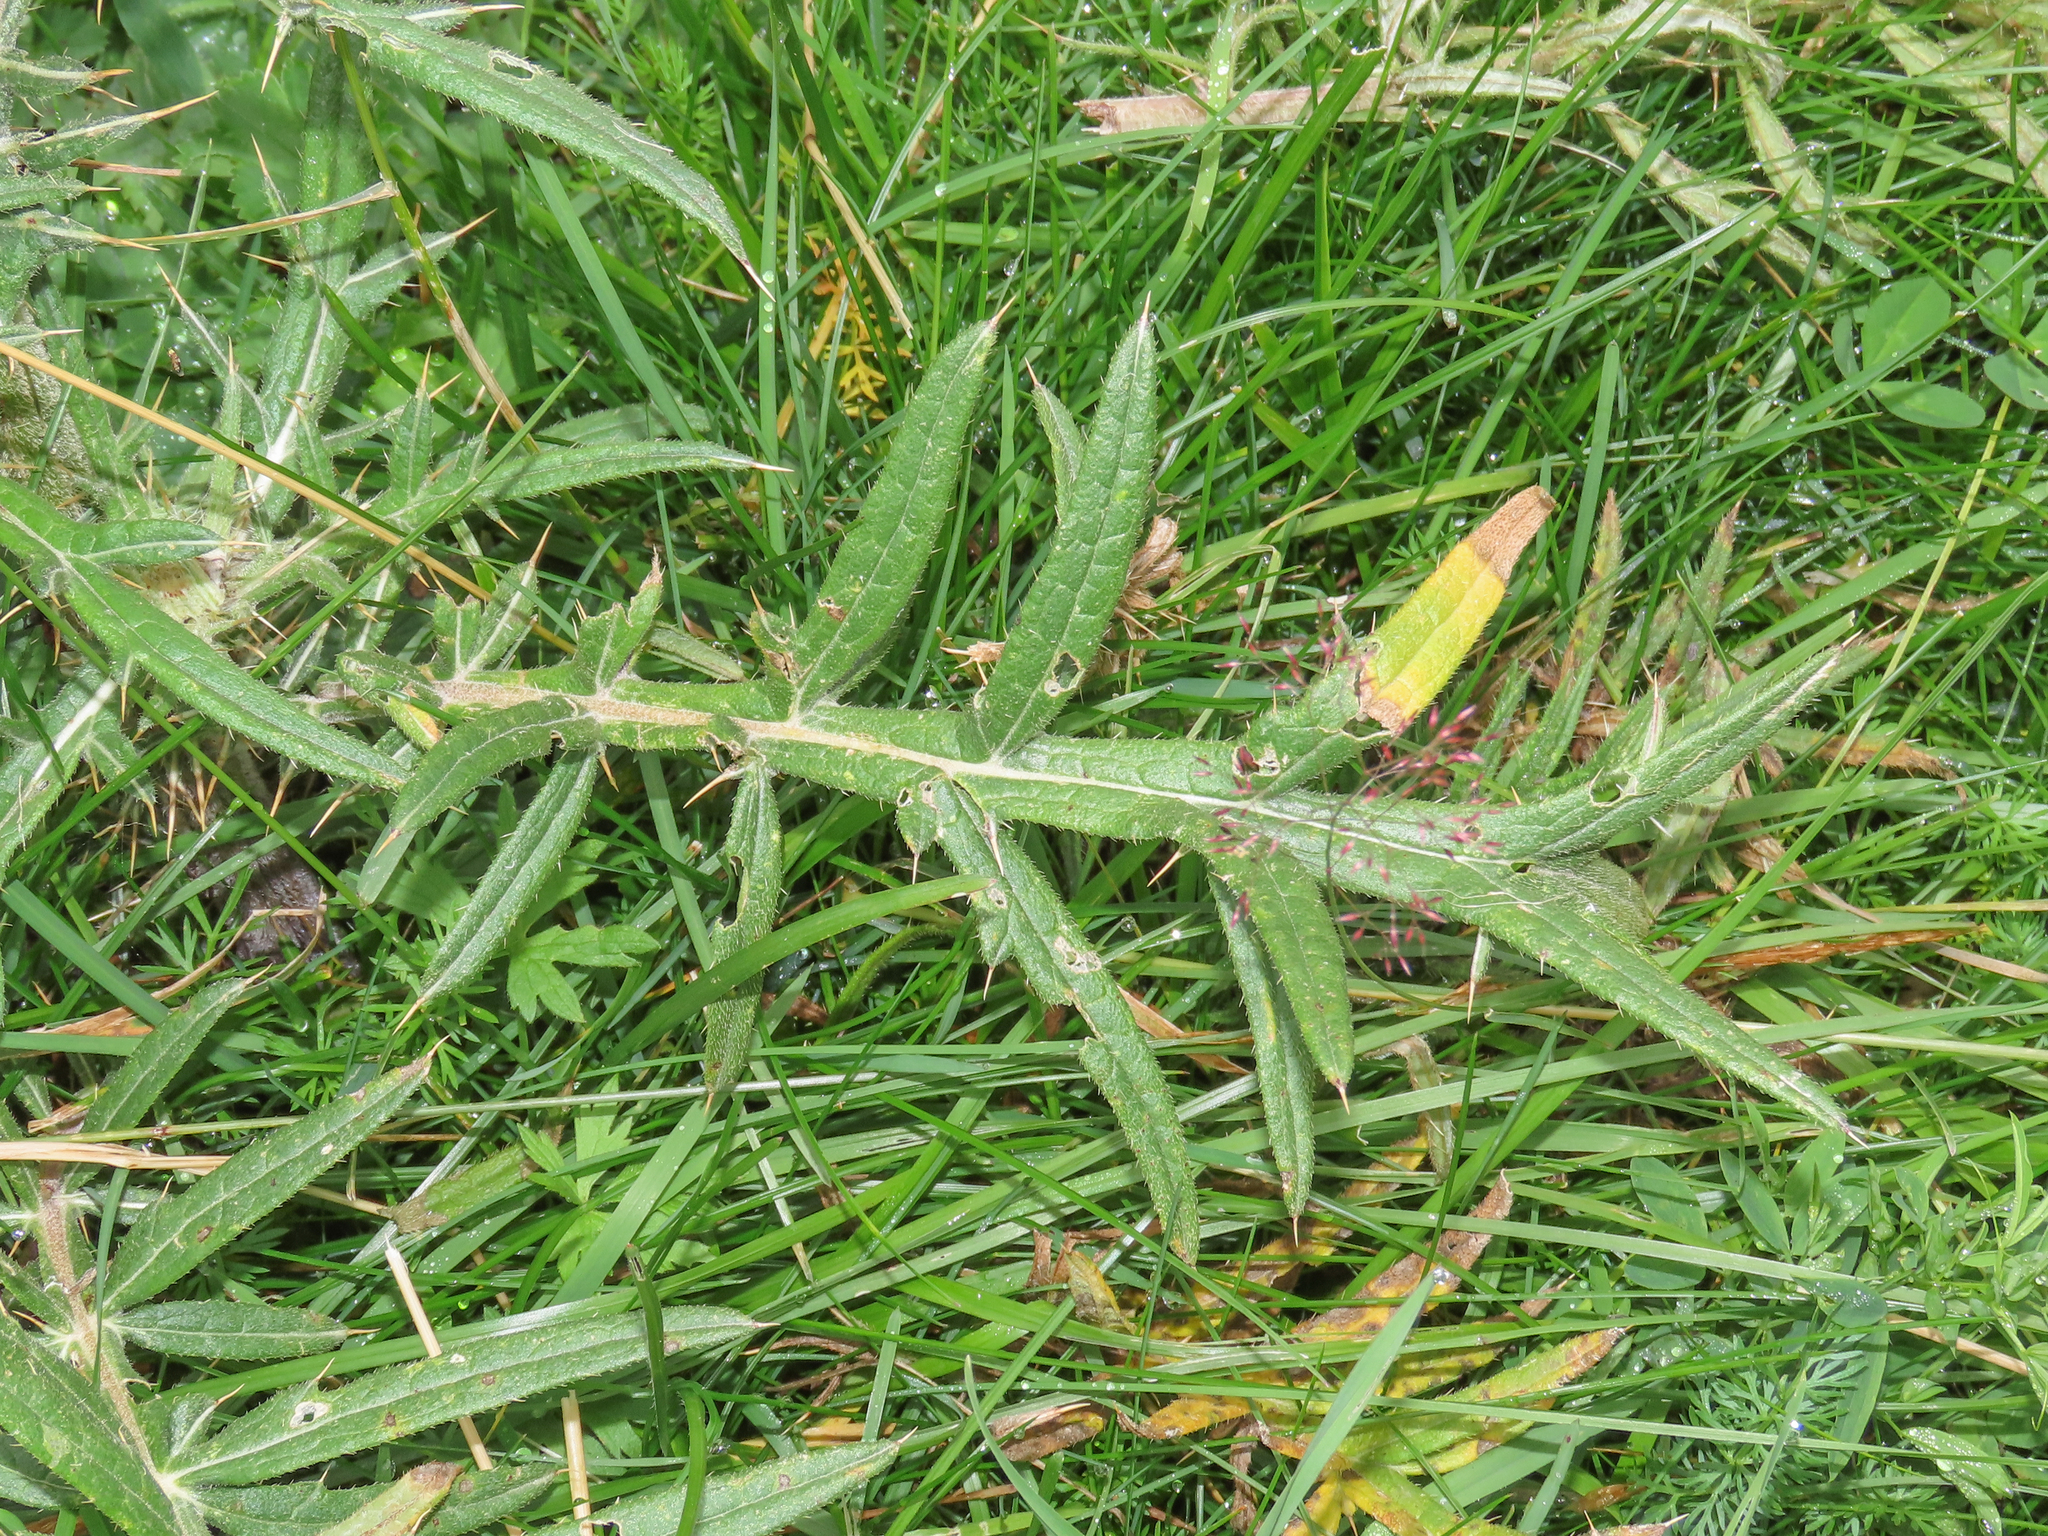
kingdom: Plantae
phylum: Tracheophyta
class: Magnoliopsida
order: Asterales
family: Asteraceae
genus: Lophiolepis
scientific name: Lophiolepis eriophora
